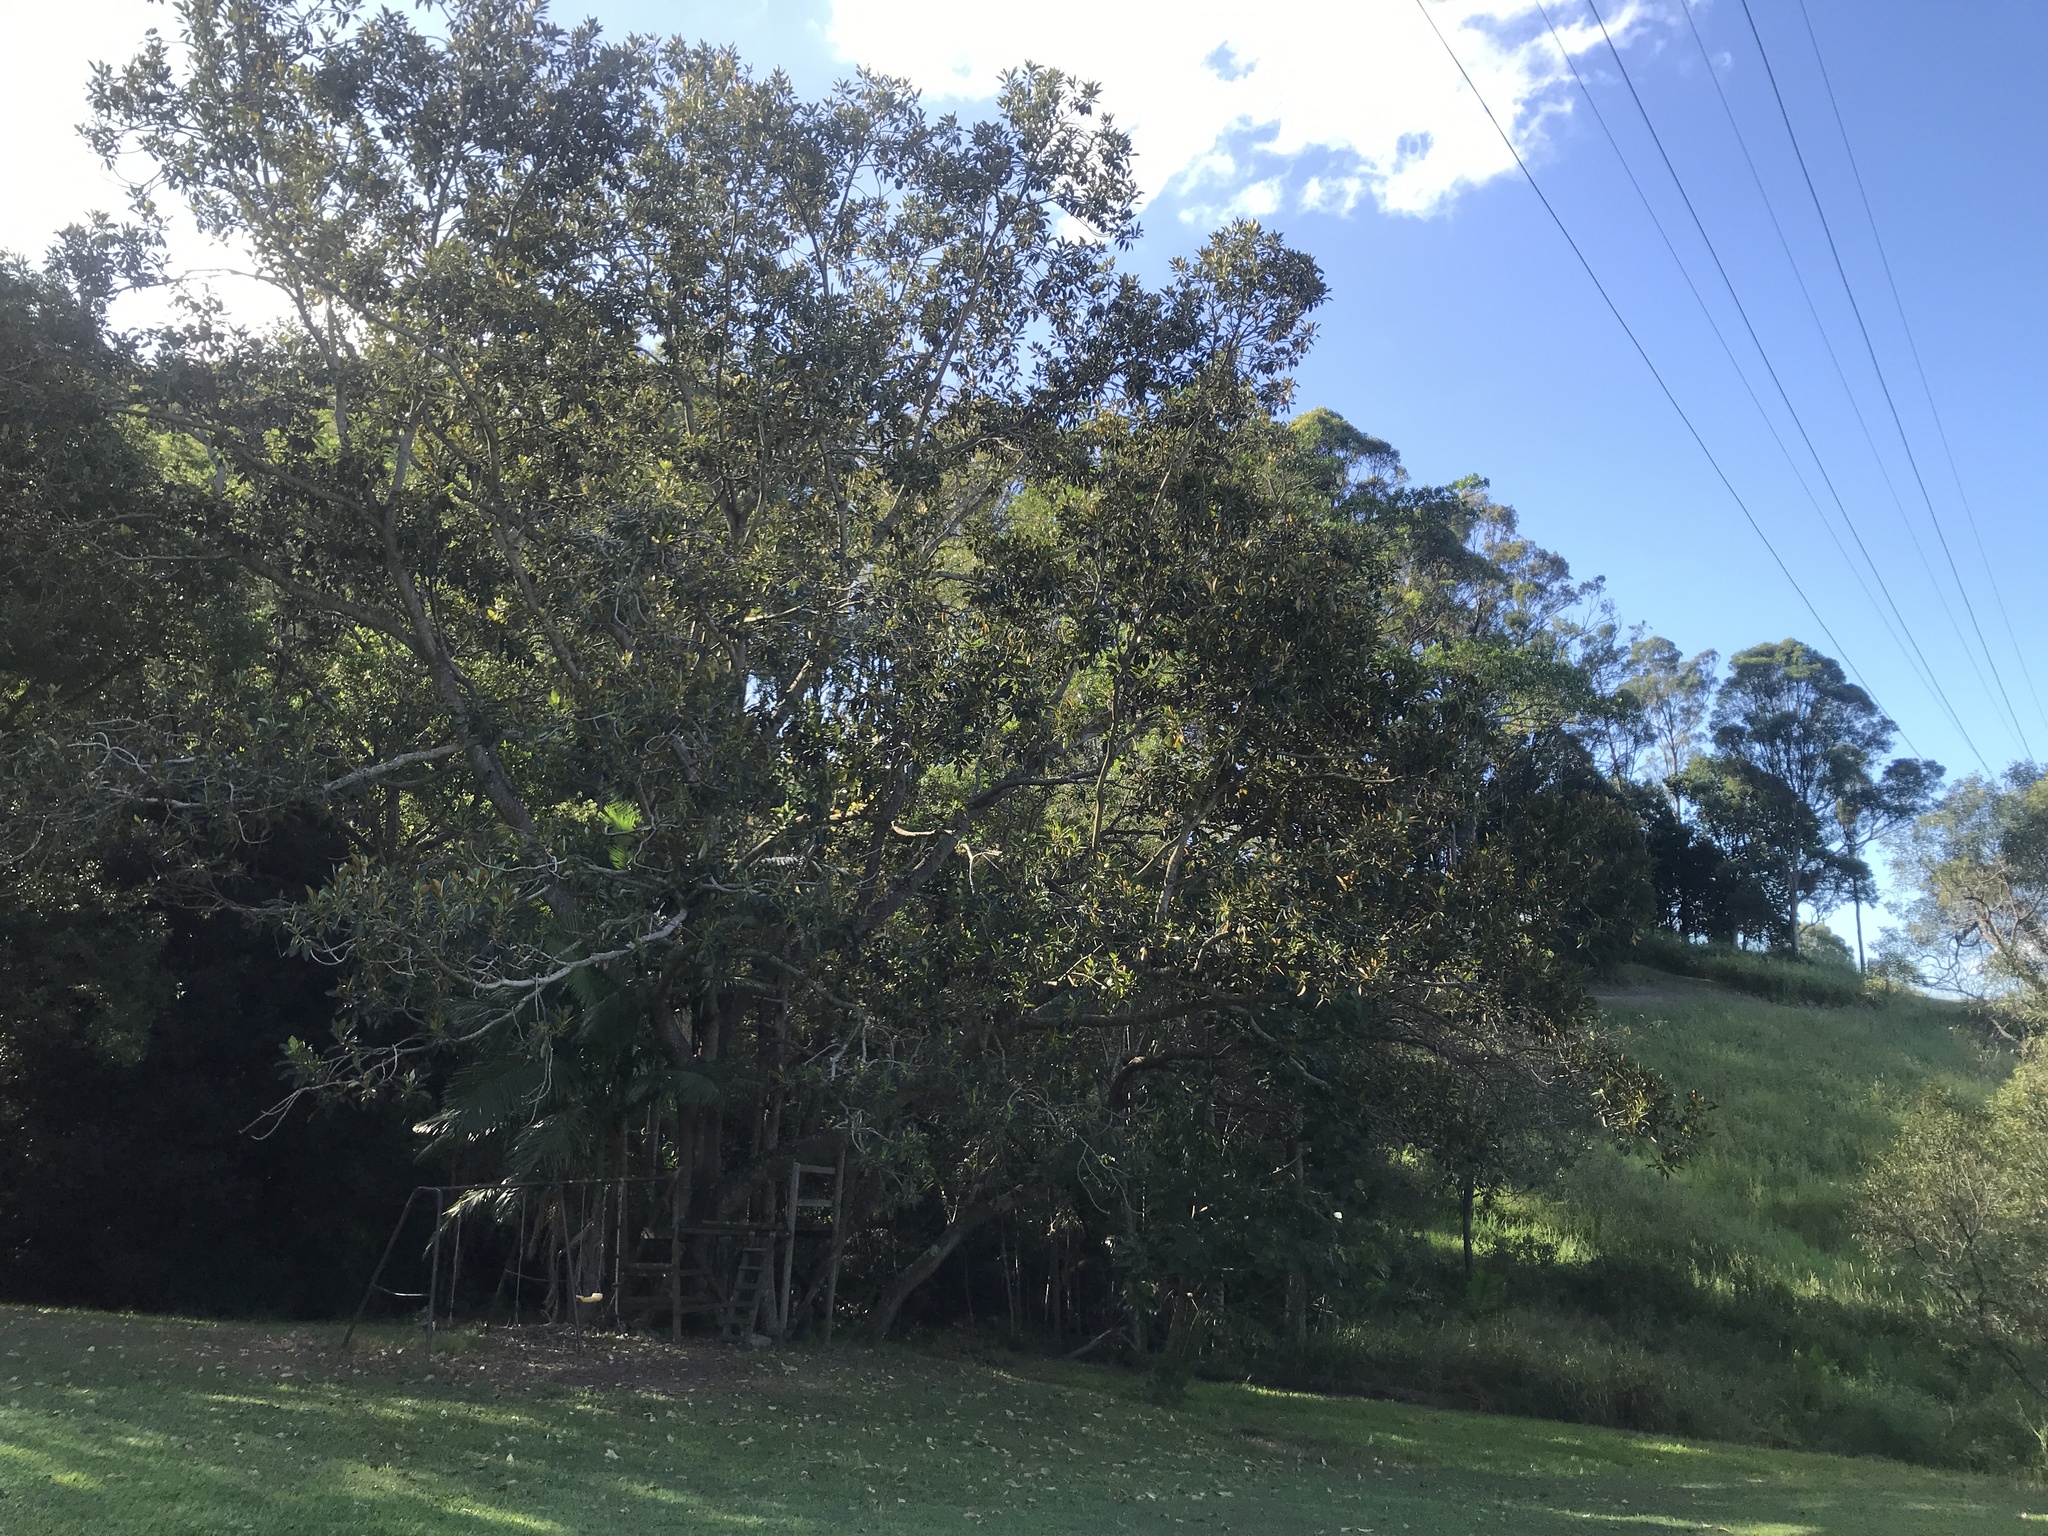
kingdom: Plantae
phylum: Tracheophyta
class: Magnoliopsida
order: Rosales
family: Moraceae
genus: Ficus
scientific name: Ficus macrophylla
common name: Moreton bay fig
